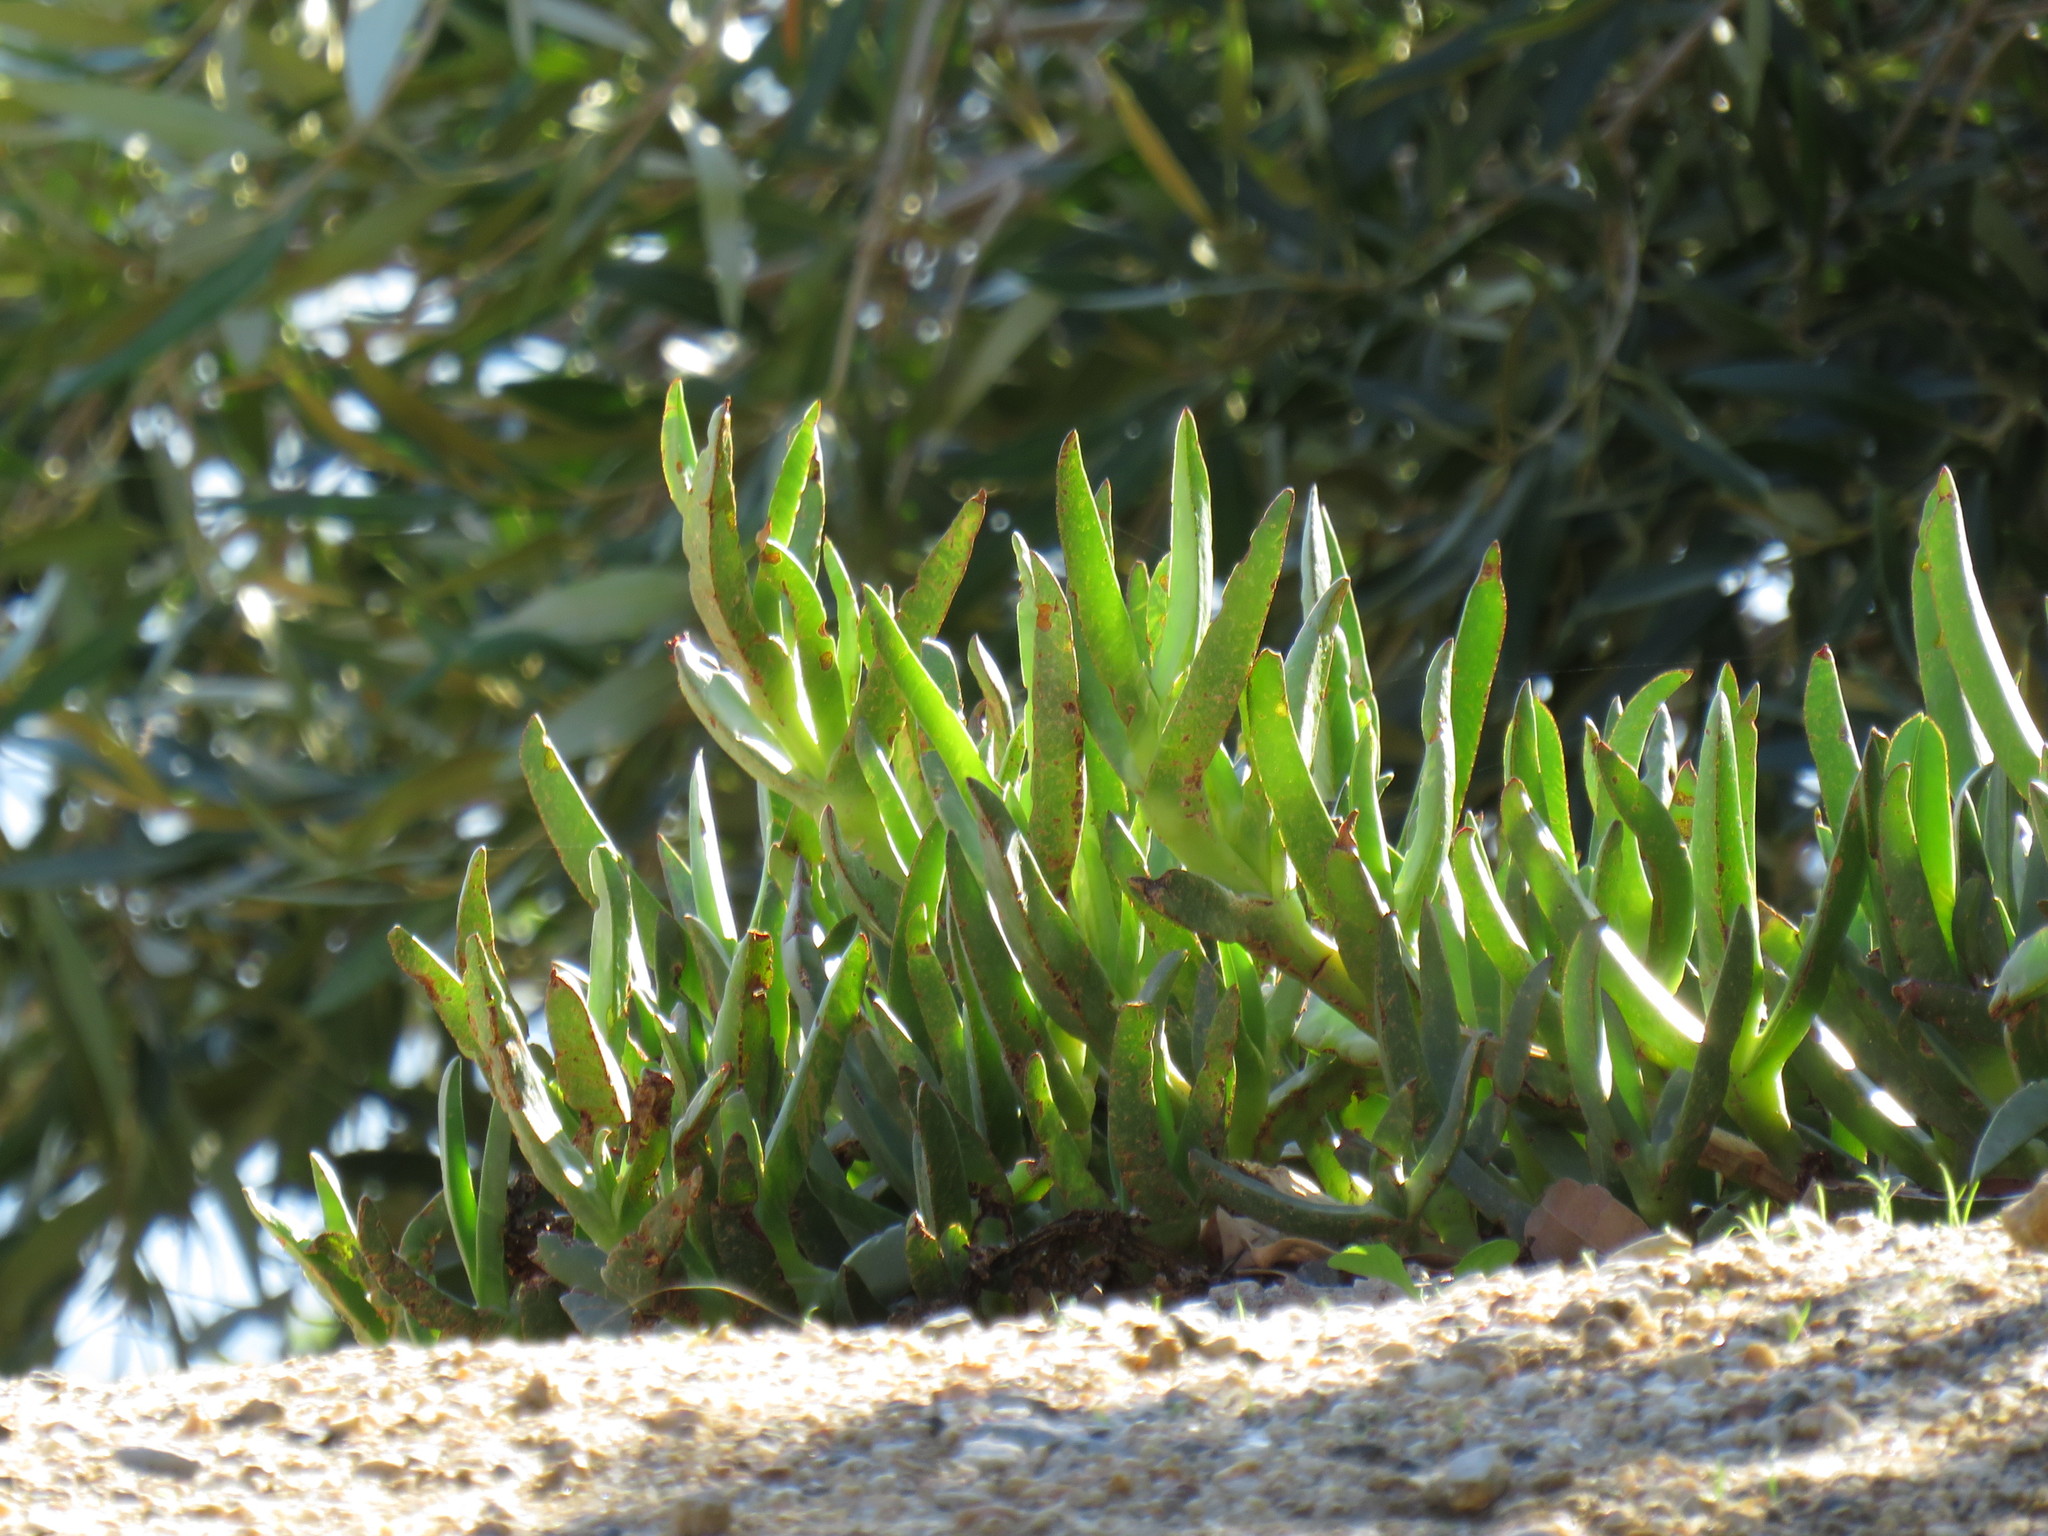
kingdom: Plantae
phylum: Tracheophyta
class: Magnoliopsida
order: Caryophyllales
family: Aizoaceae
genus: Carpobrotus
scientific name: Carpobrotus edulis
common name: Hottentot-fig
